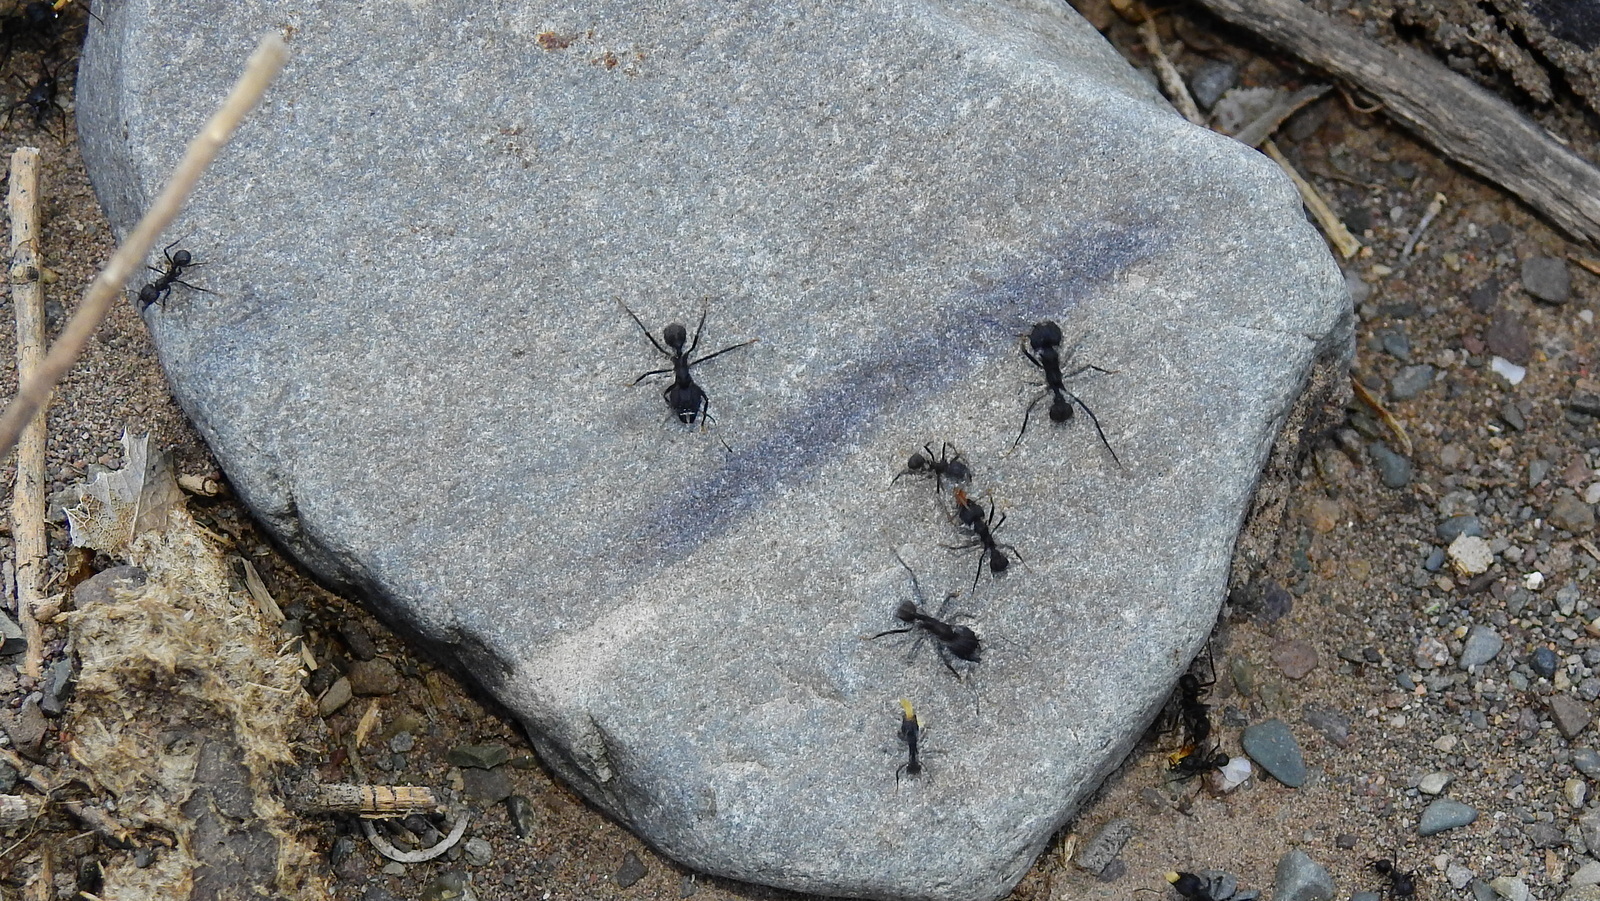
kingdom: Animalia
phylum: Arthropoda
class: Insecta
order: Hymenoptera
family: Formicidae
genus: Acromyrmex
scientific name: Acromyrmex lobicornis
